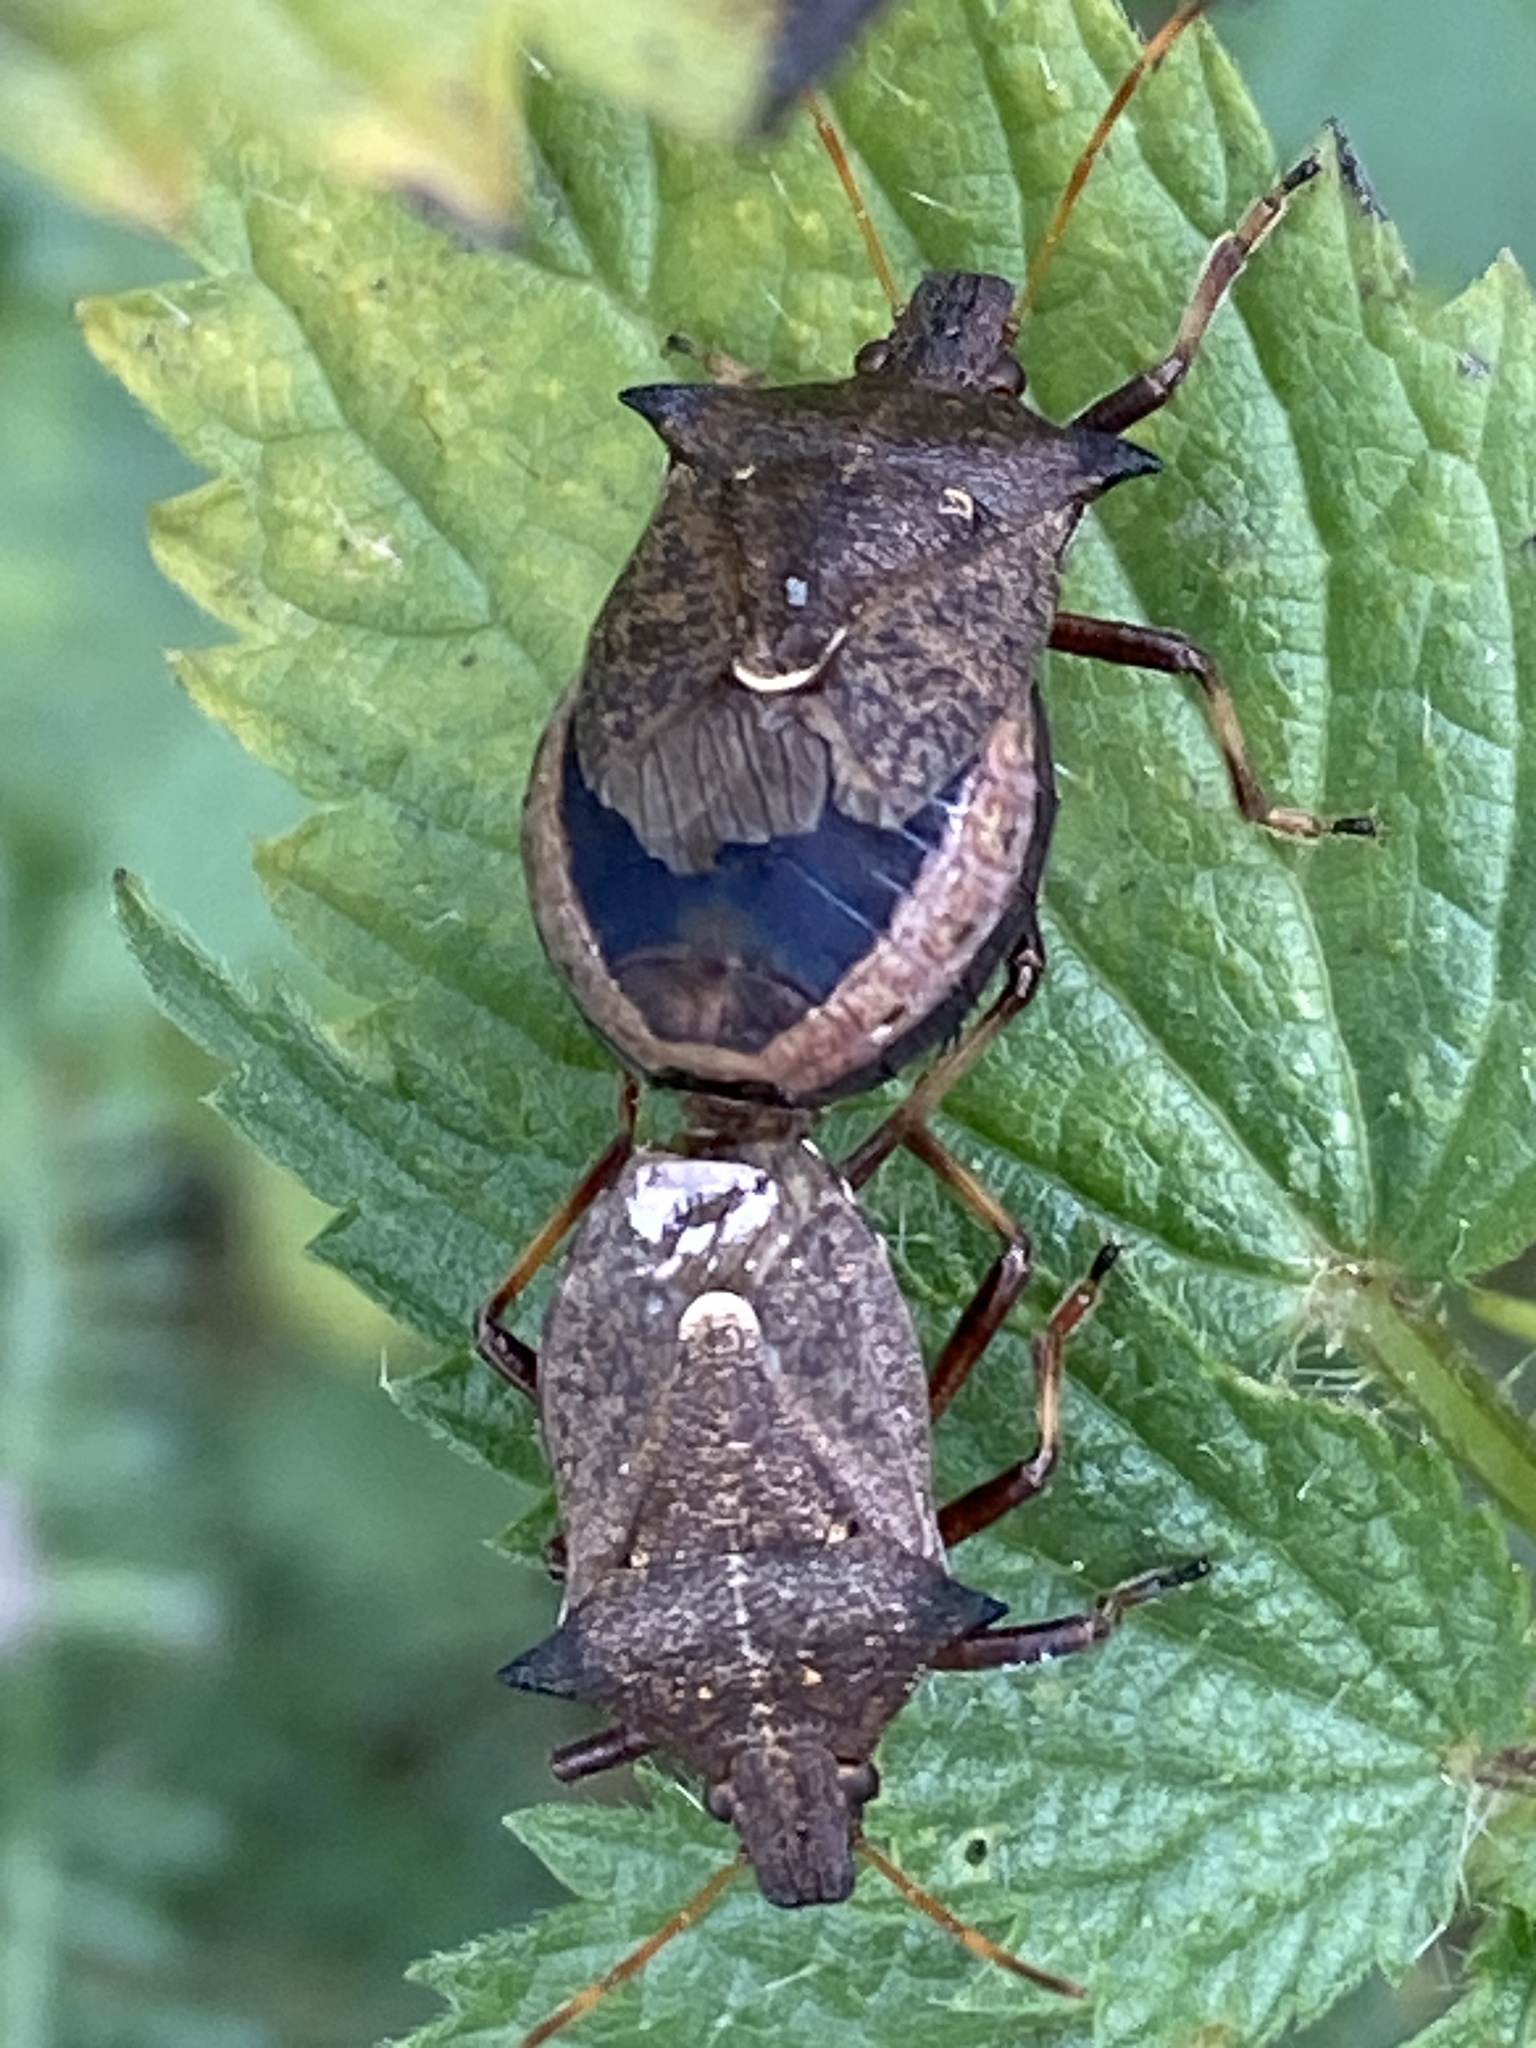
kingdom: Animalia
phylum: Arthropoda
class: Insecta
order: Hemiptera
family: Pentatomidae
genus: Picromerus
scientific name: Picromerus bidens
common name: Spiked shieldbug
